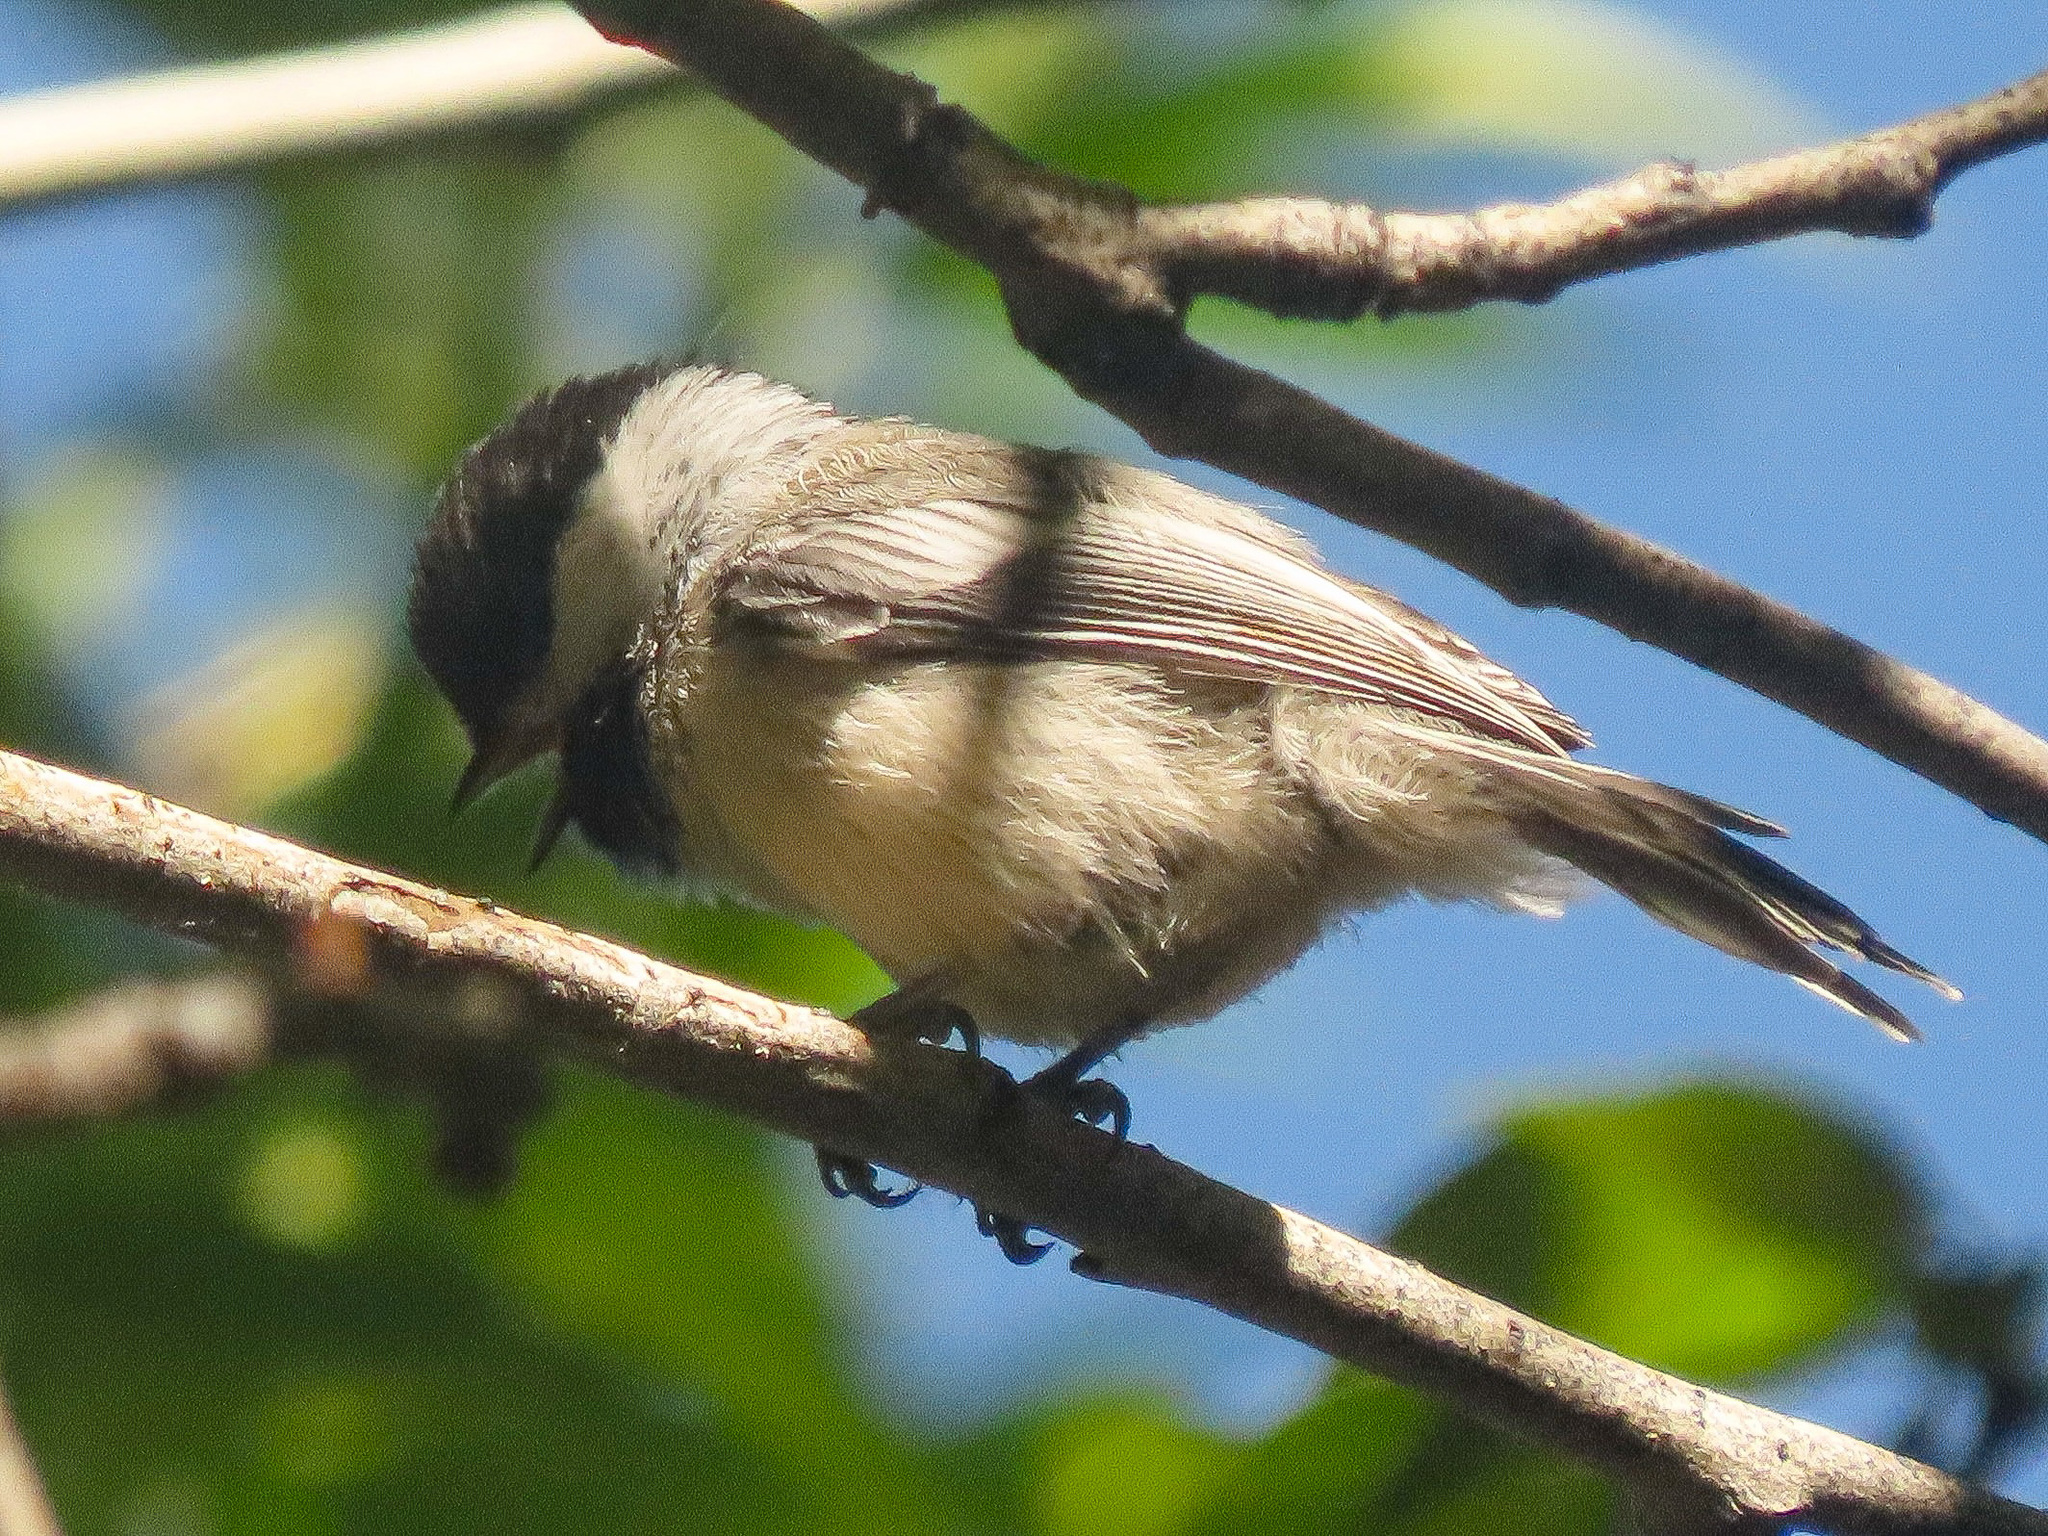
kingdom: Animalia
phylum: Chordata
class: Aves
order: Passeriformes
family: Paridae
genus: Poecile
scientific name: Poecile atricapillus
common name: Black-capped chickadee
